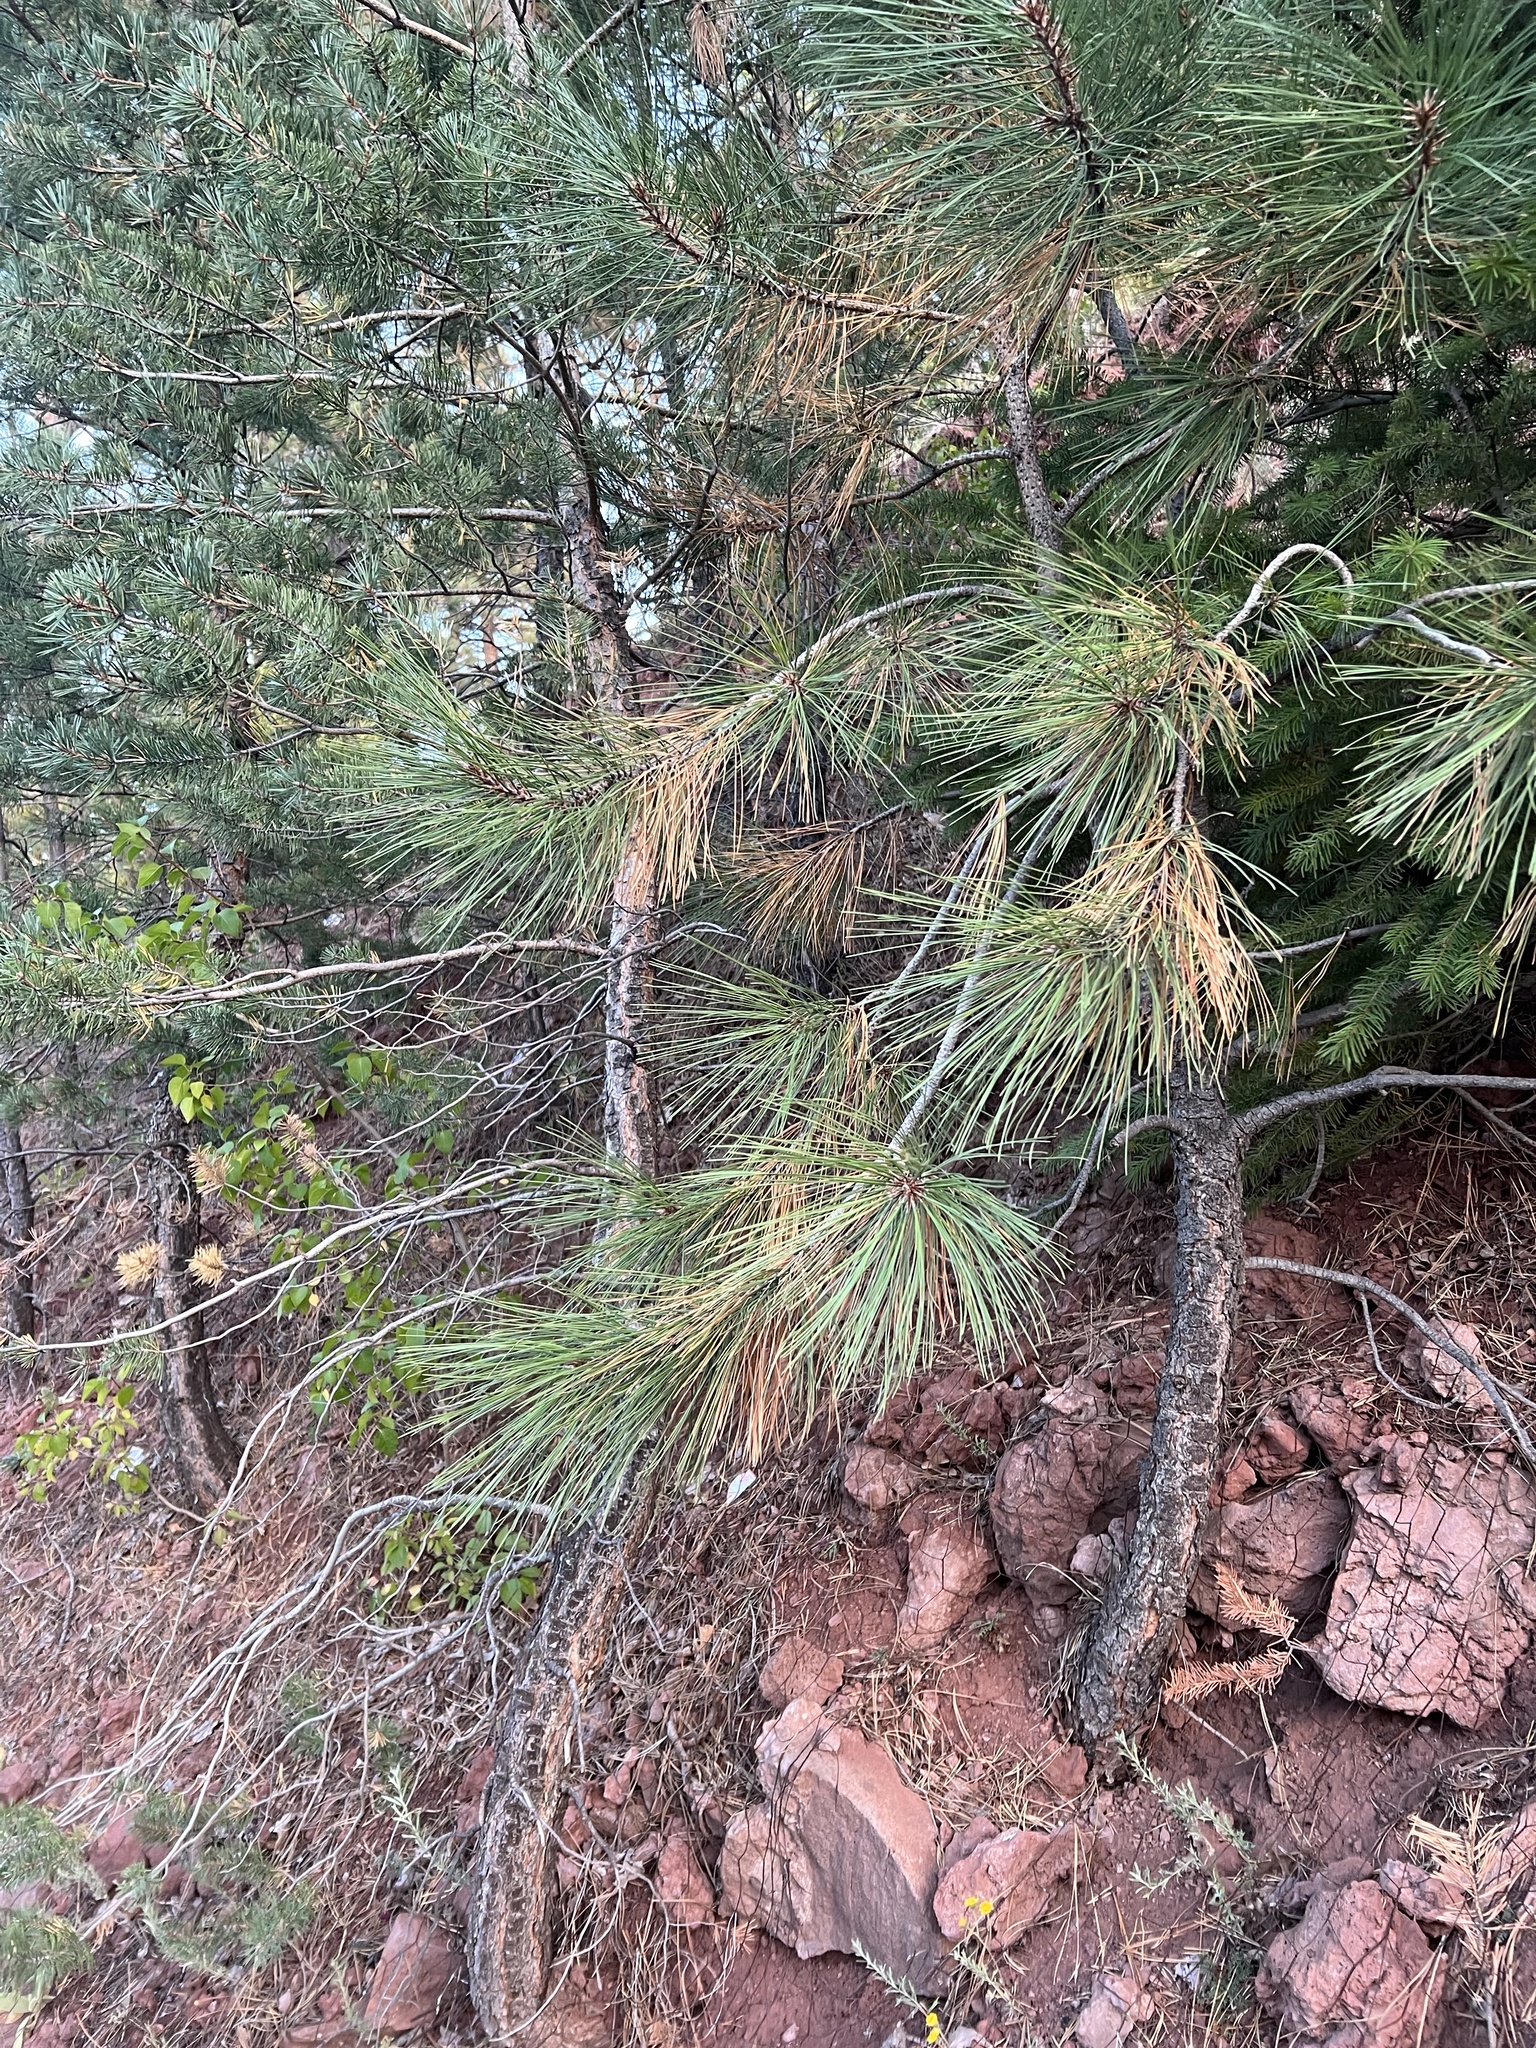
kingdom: Plantae
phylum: Tracheophyta
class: Pinopsida
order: Pinales
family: Pinaceae
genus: Pinus
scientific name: Pinus ponderosa
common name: Western yellow-pine
